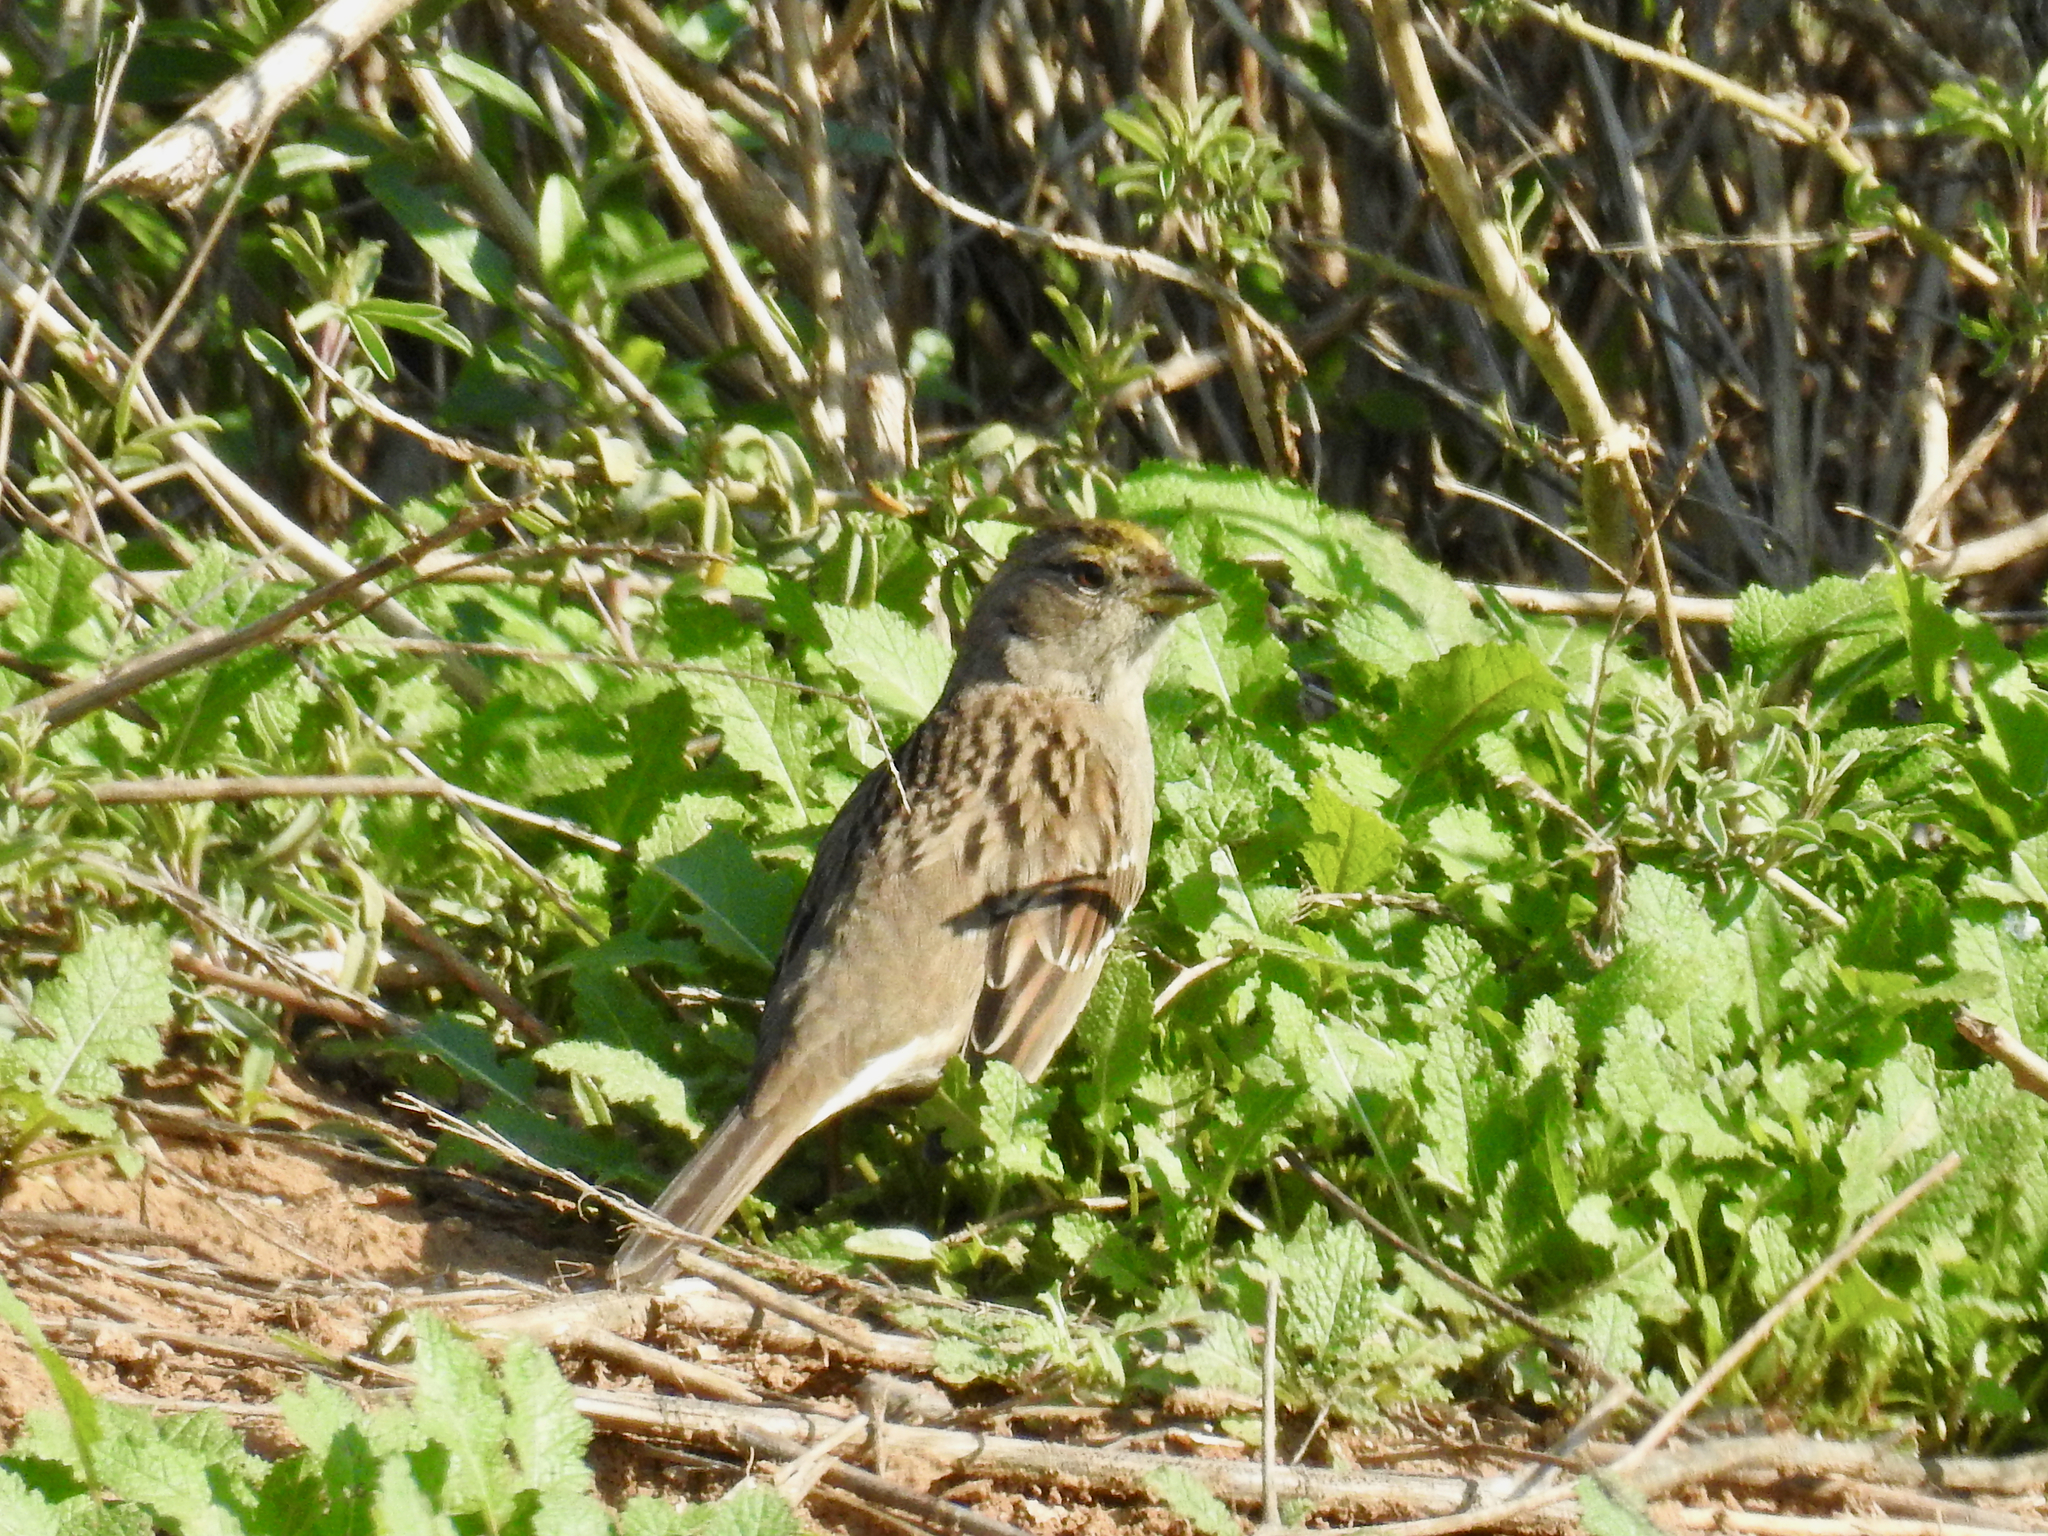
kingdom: Animalia
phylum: Chordata
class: Aves
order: Passeriformes
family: Passerellidae
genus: Zonotrichia
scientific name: Zonotrichia atricapilla
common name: Golden-crowned sparrow
